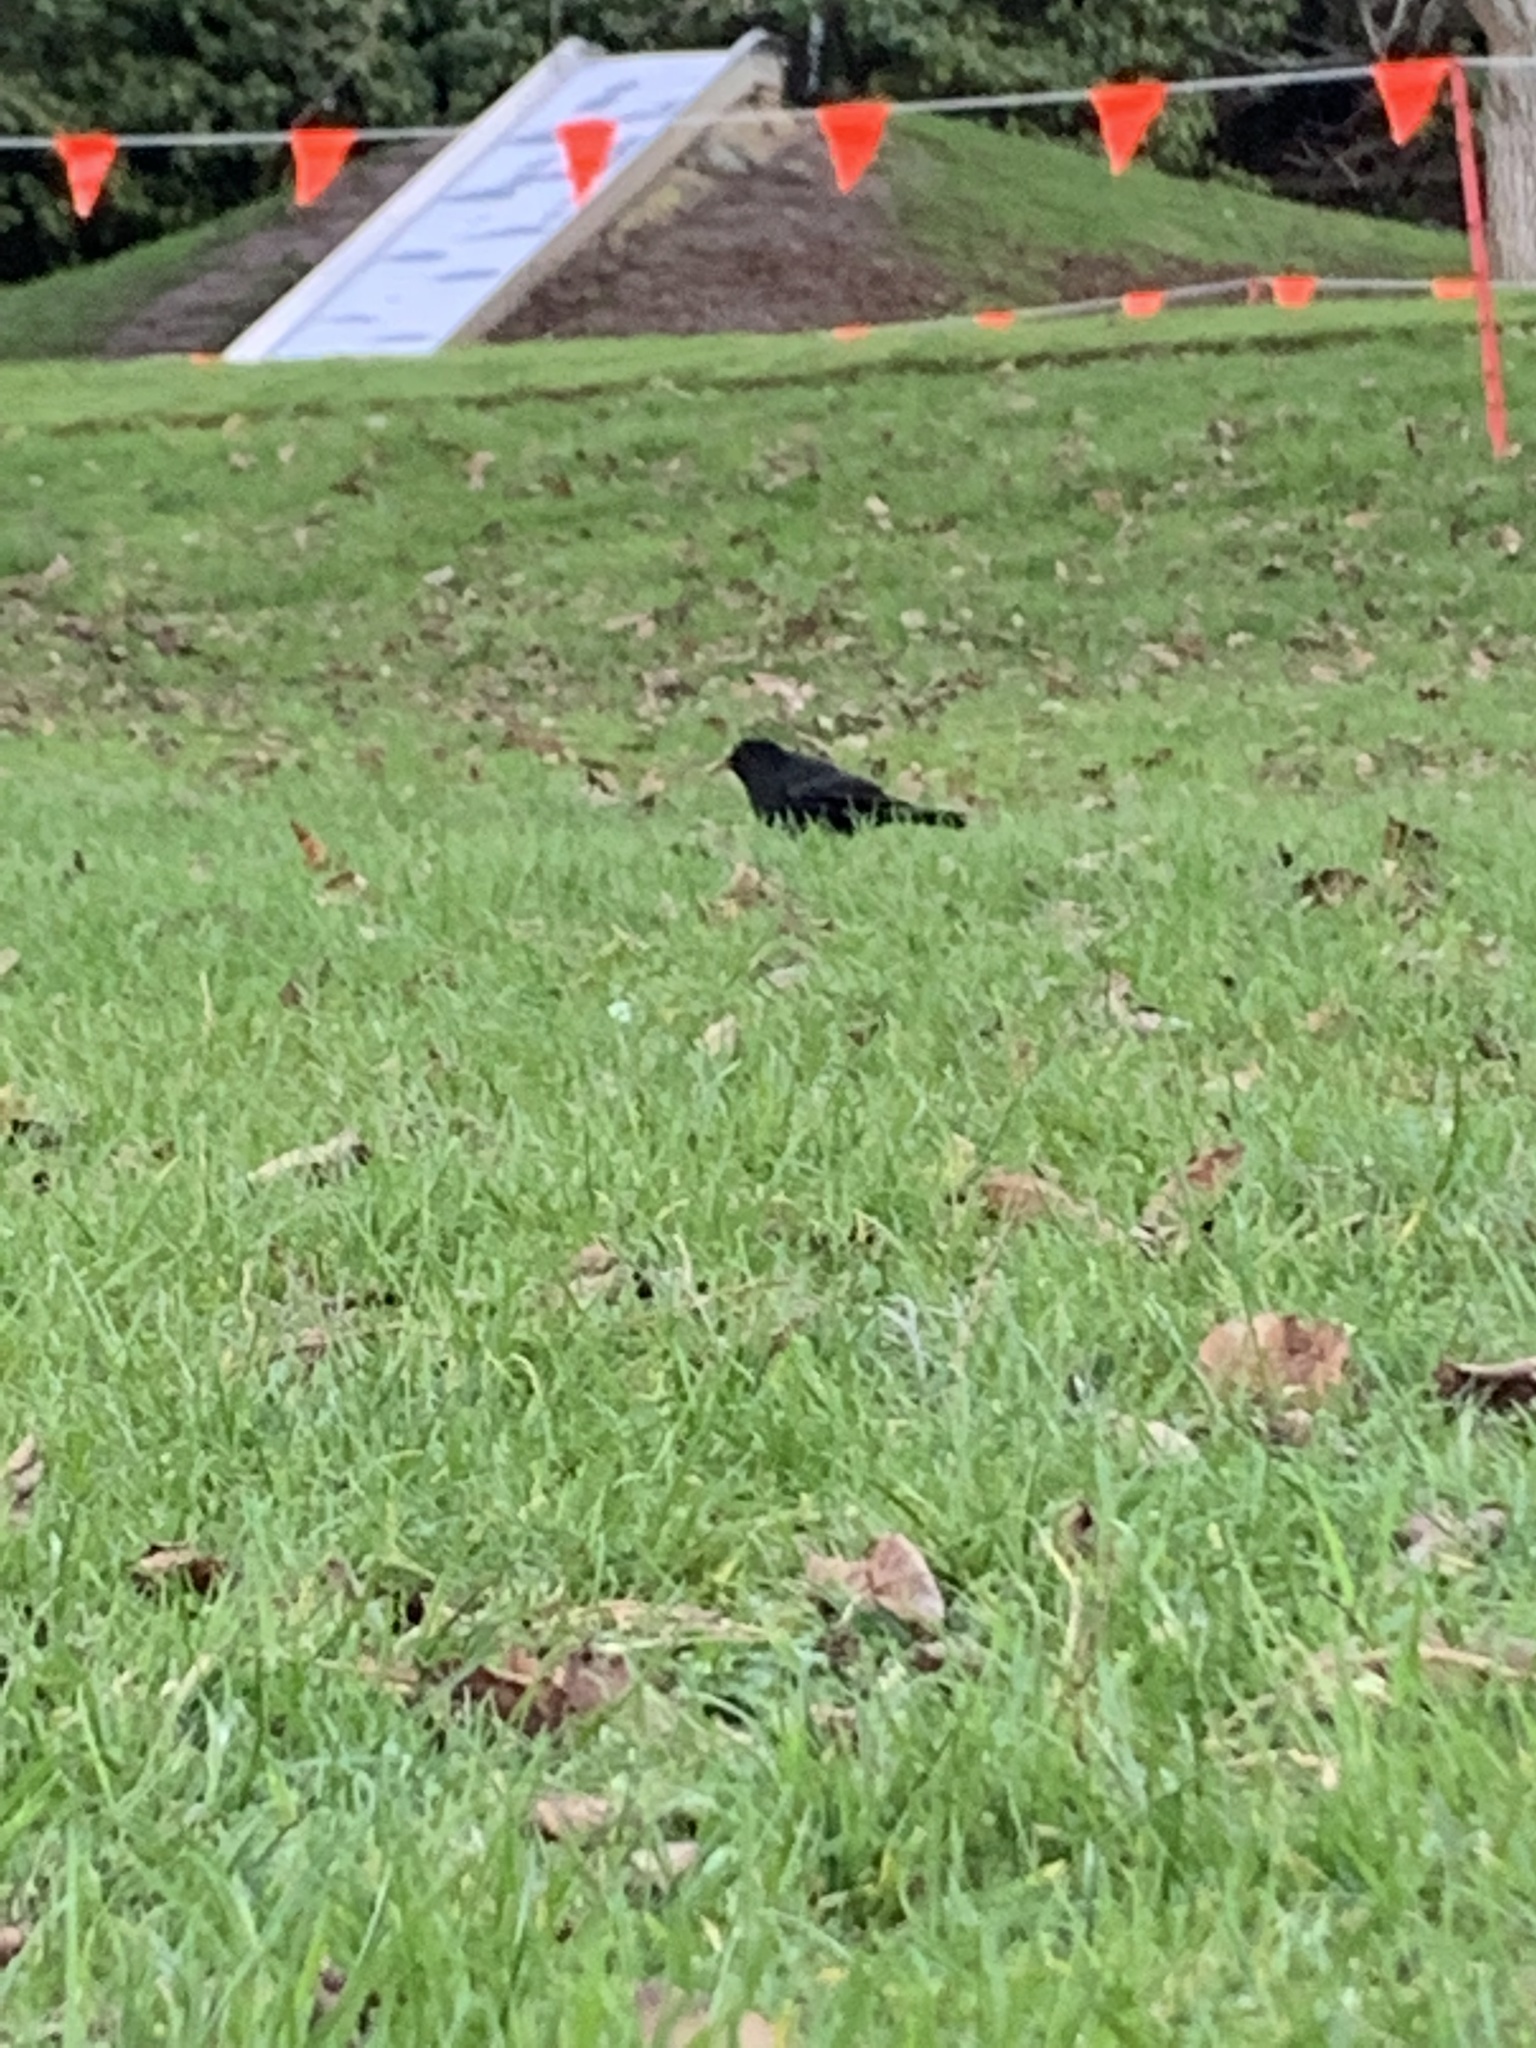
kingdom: Animalia
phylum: Chordata
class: Aves
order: Passeriformes
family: Turdidae
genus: Turdus
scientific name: Turdus merula
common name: Common blackbird
